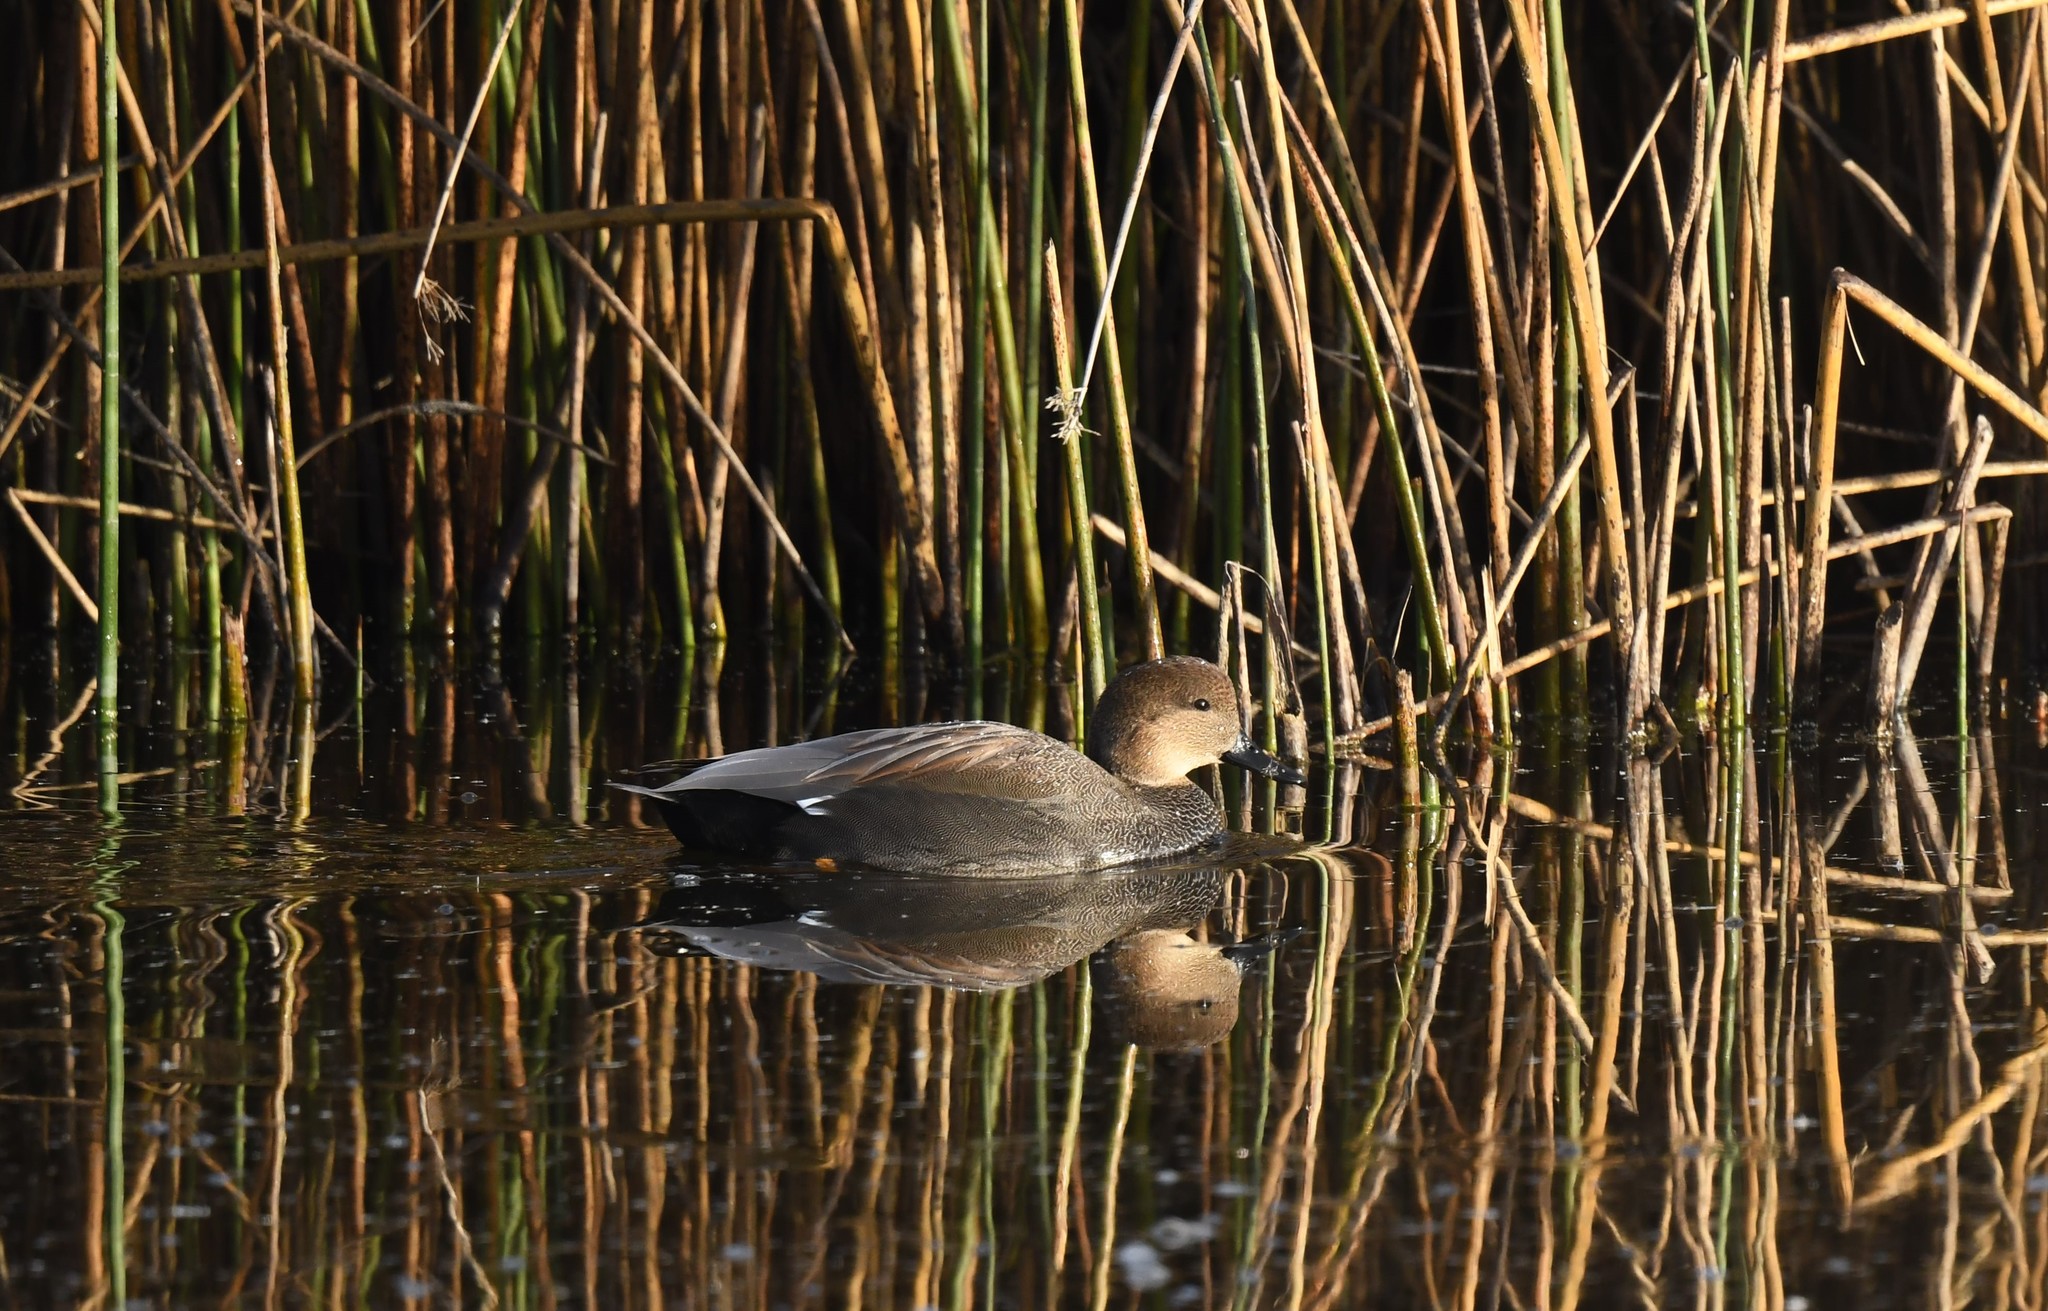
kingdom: Animalia
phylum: Chordata
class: Aves
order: Anseriformes
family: Anatidae
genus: Mareca
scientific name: Mareca strepera
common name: Gadwall
